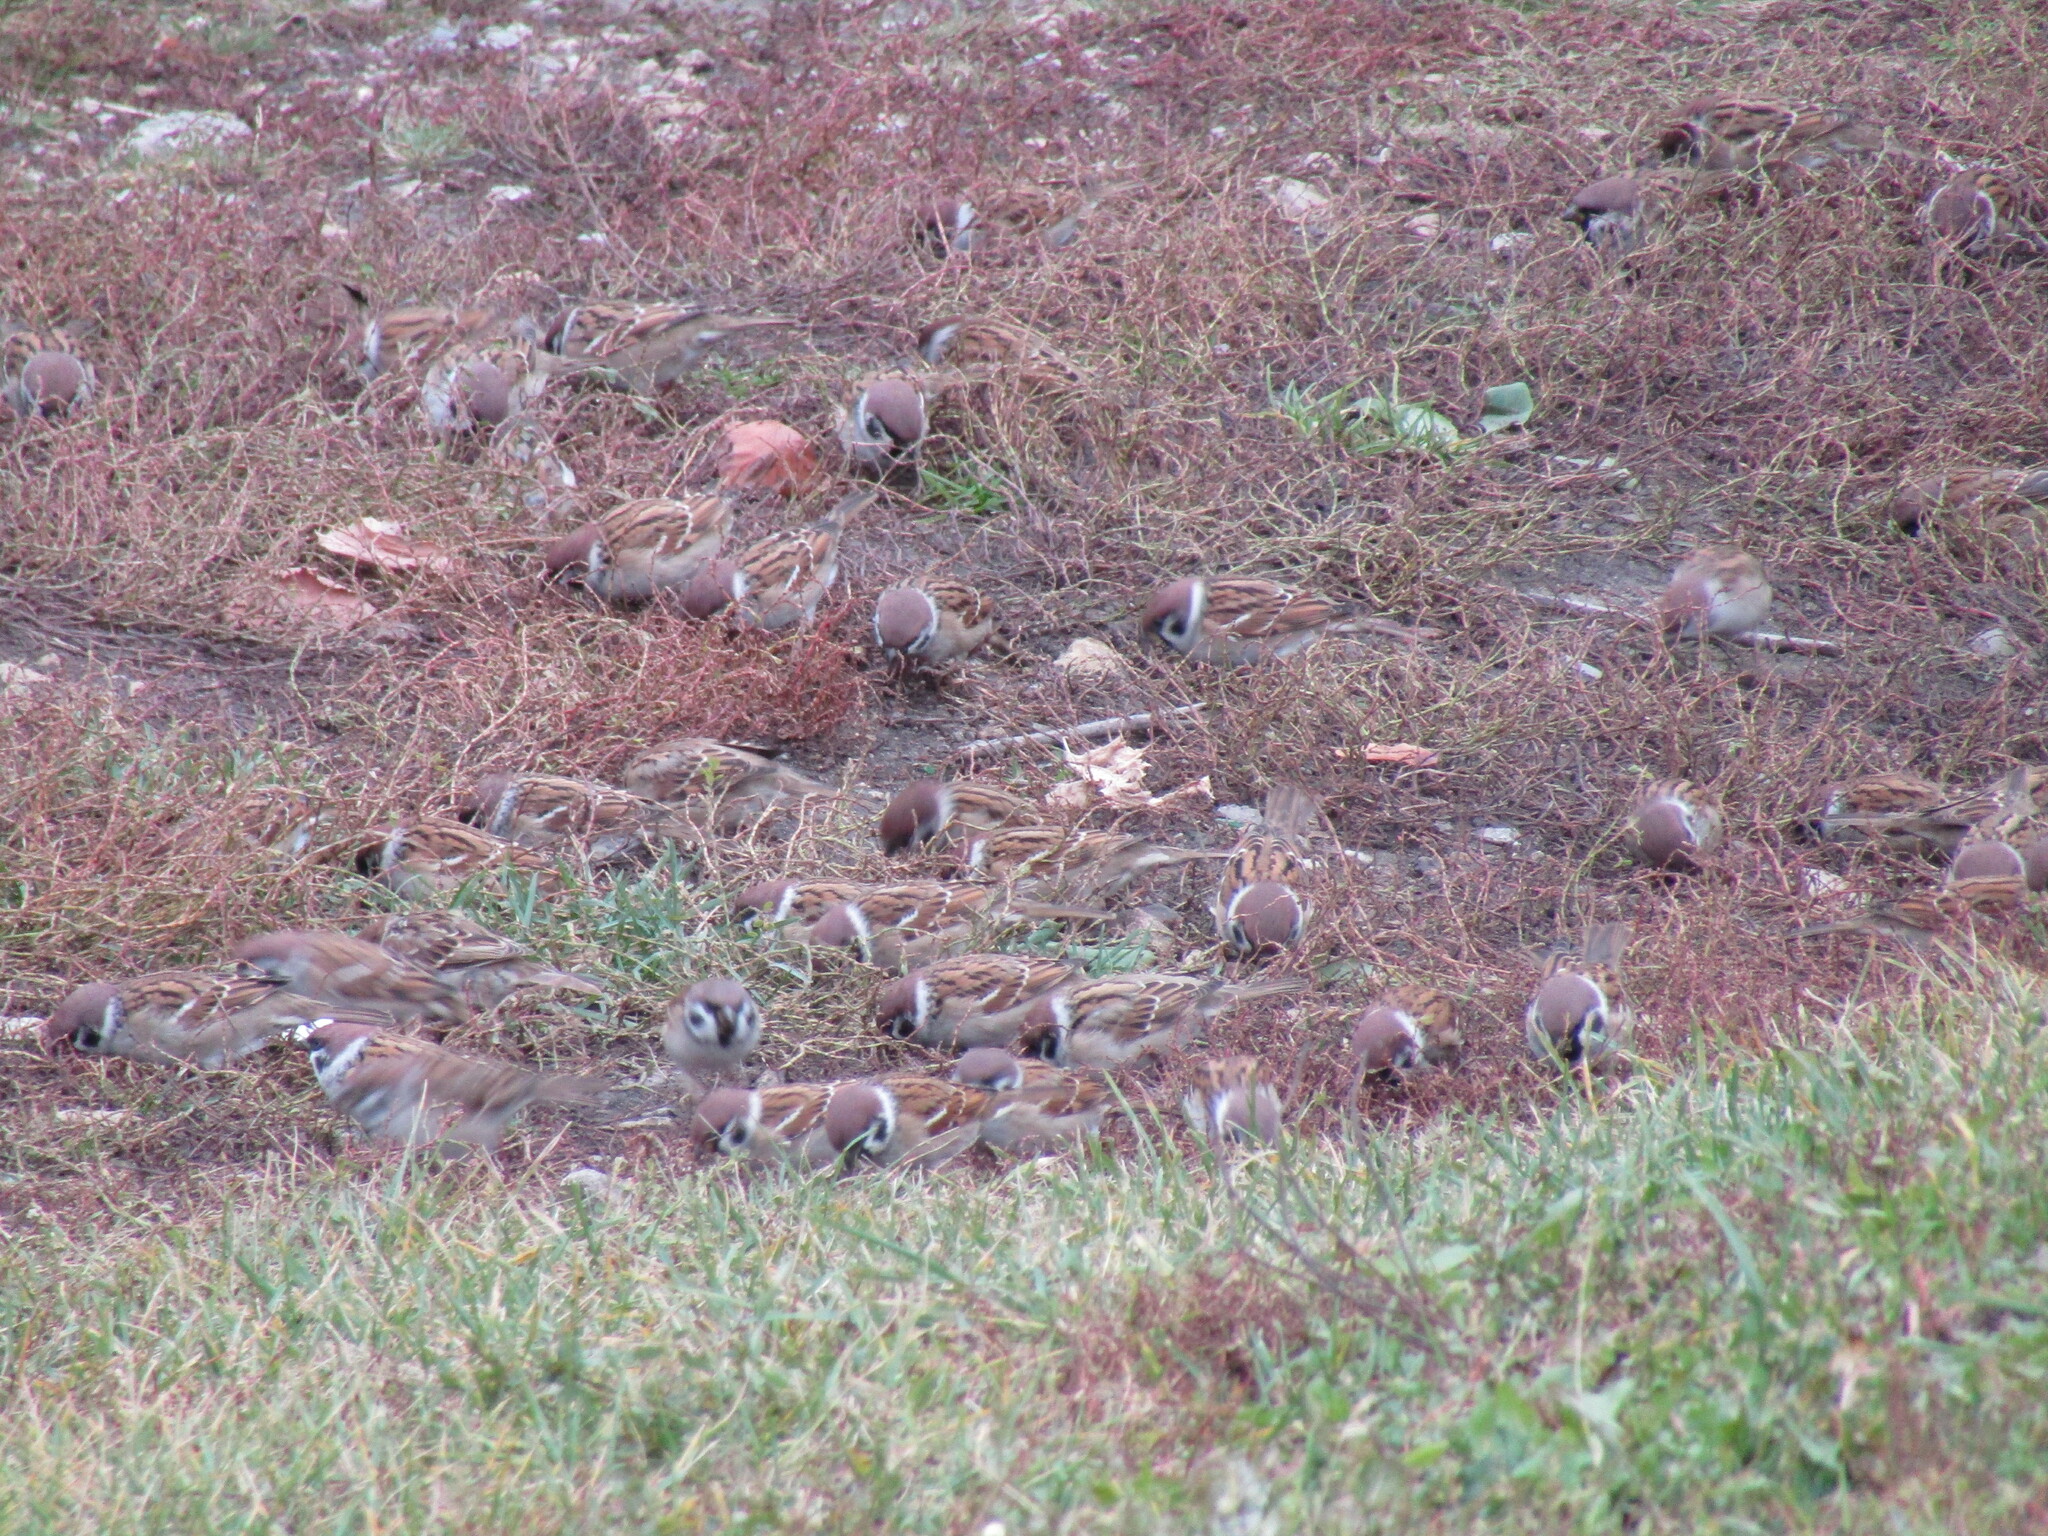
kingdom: Animalia
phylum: Chordata
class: Aves
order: Passeriformes
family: Passeridae
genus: Passer
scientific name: Passer montanus
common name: Eurasian tree sparrow
